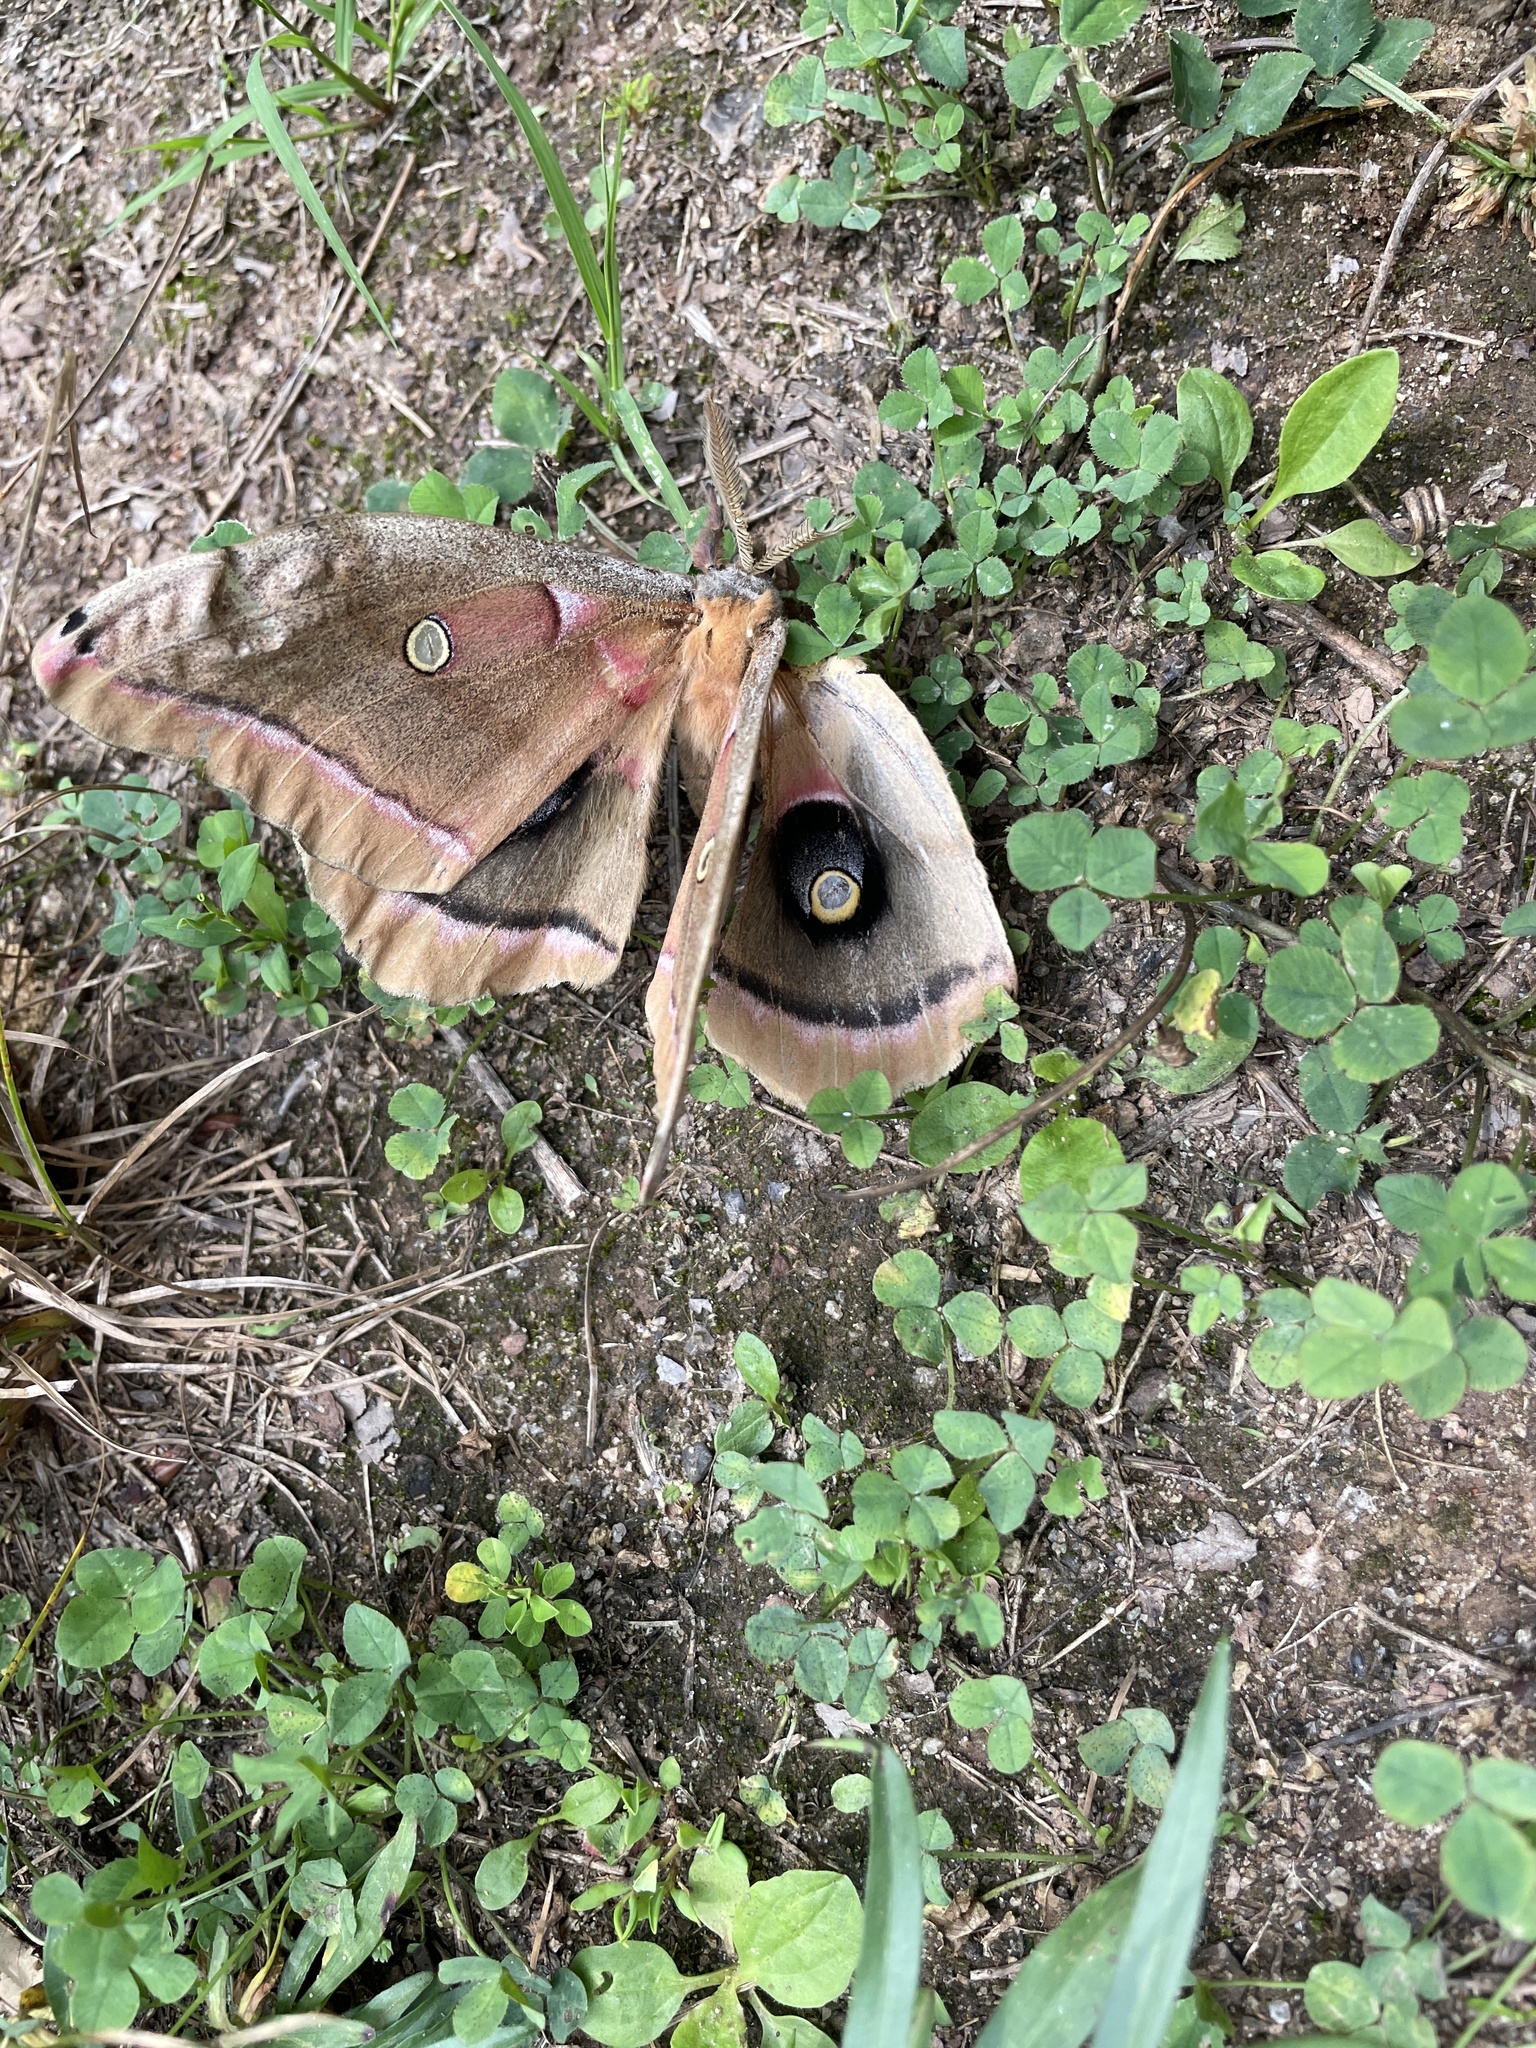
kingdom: Animalia
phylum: Arthropoda
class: Insecta
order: Lepidoptera
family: Saturniidae
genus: Antheraea
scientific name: Antheraea polyphemus
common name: Polyphemus moth
